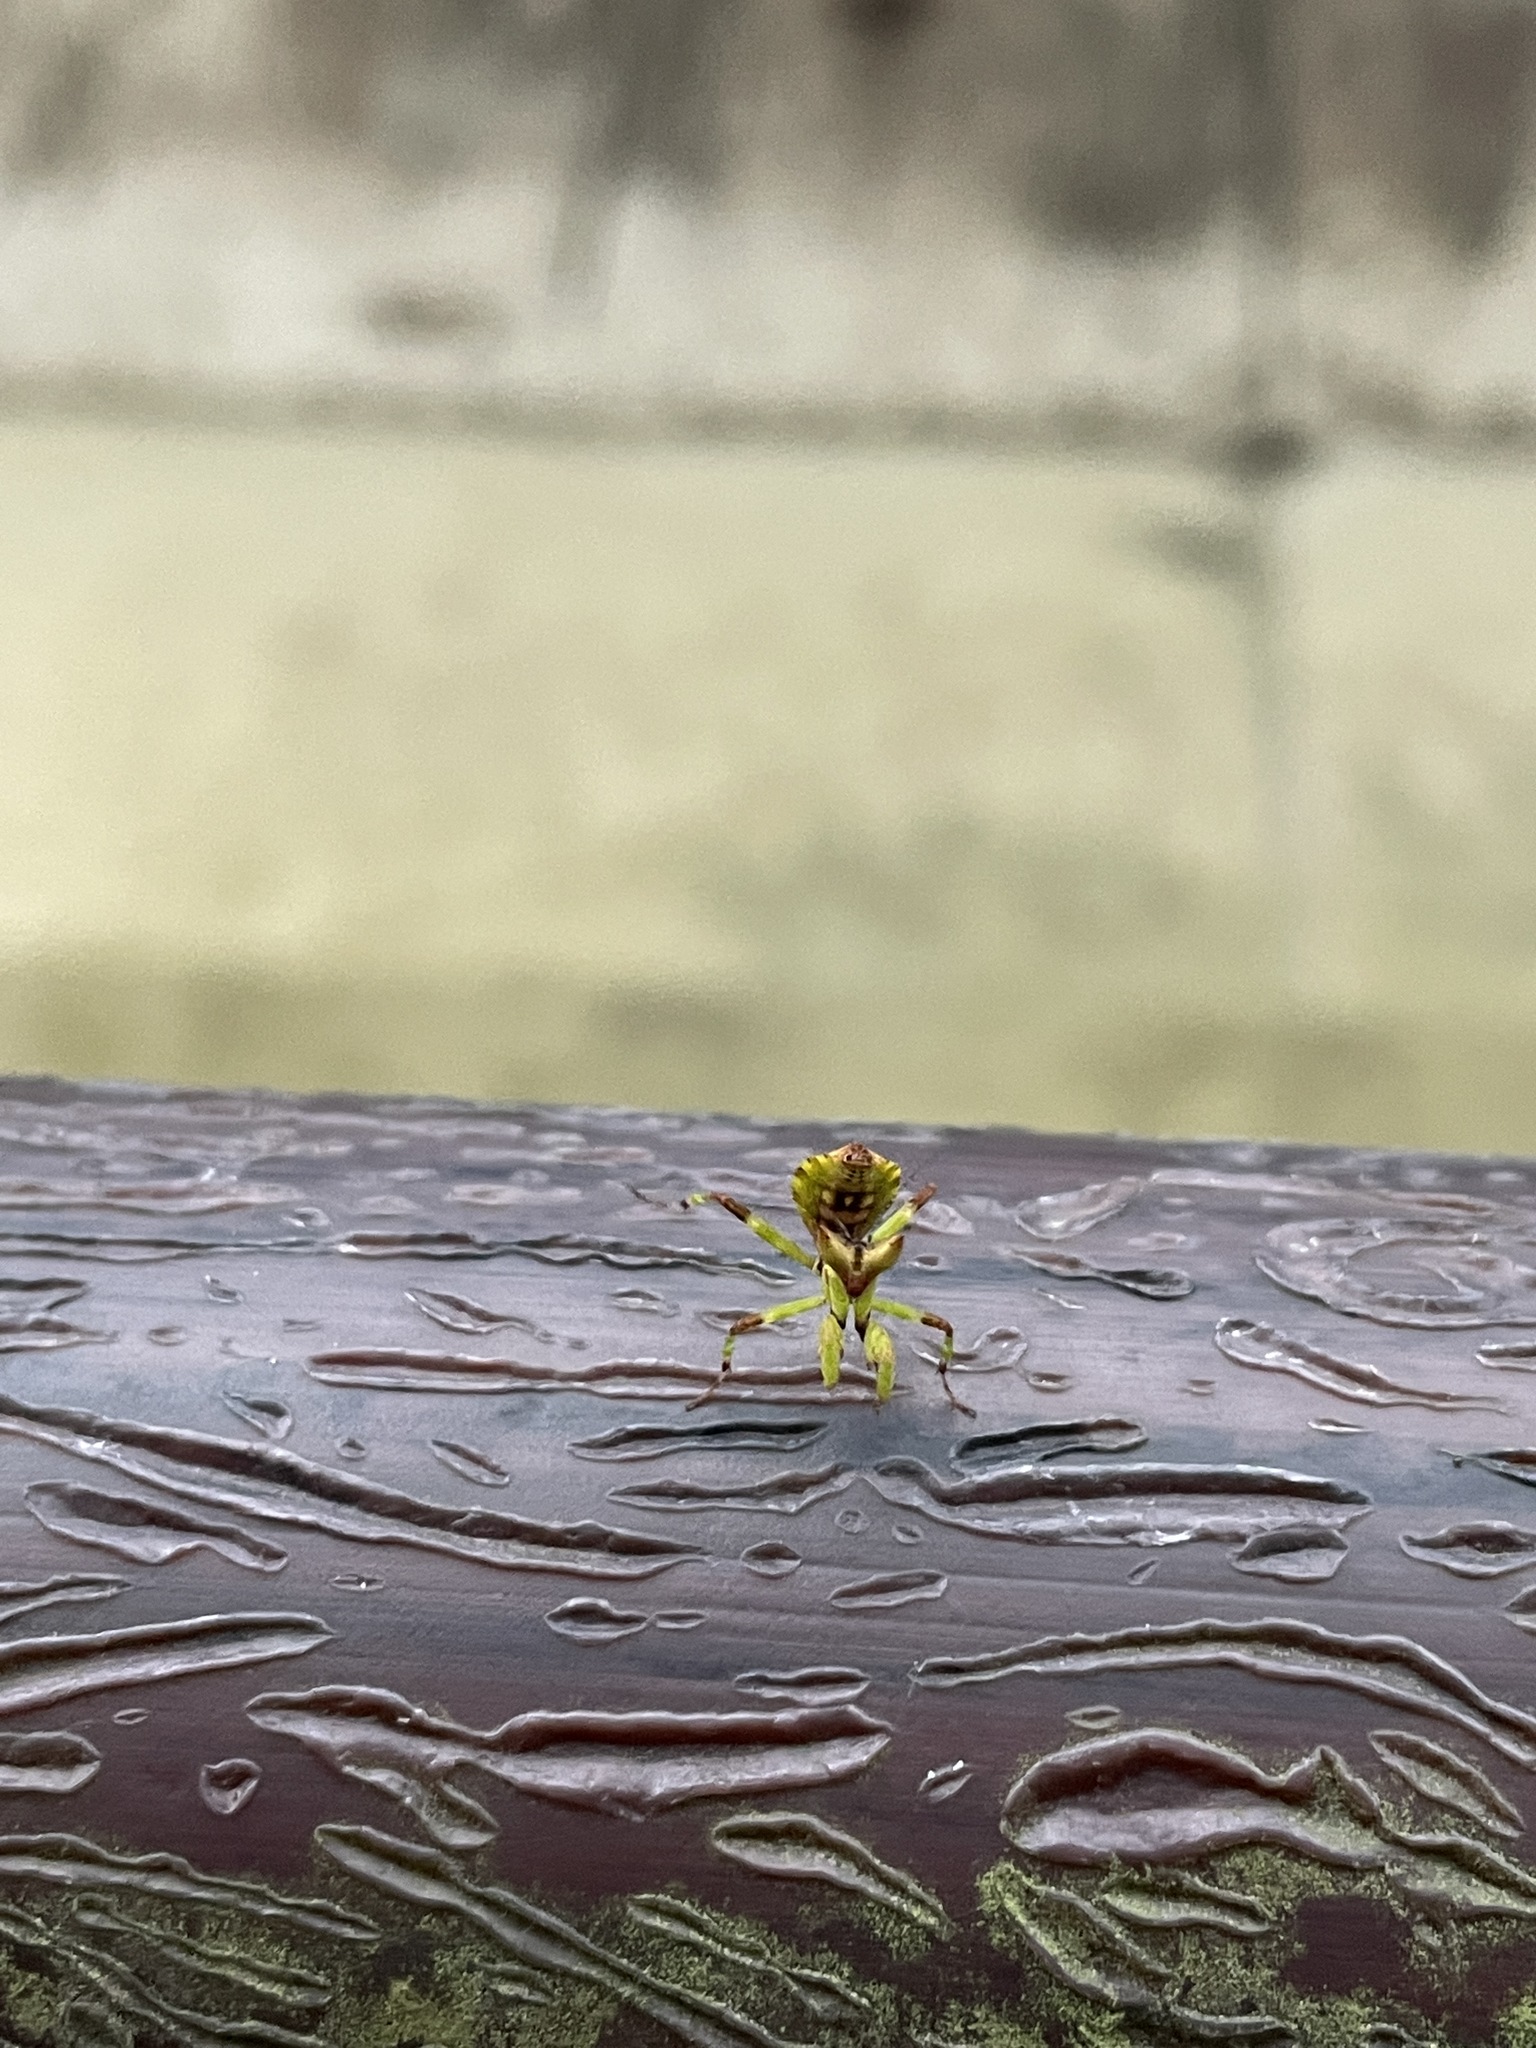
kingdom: Animalia
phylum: Arthropoda
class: Insecta
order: Mantodea
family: Hymenopodidae
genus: Creobroter
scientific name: Creobroter gemmatus
